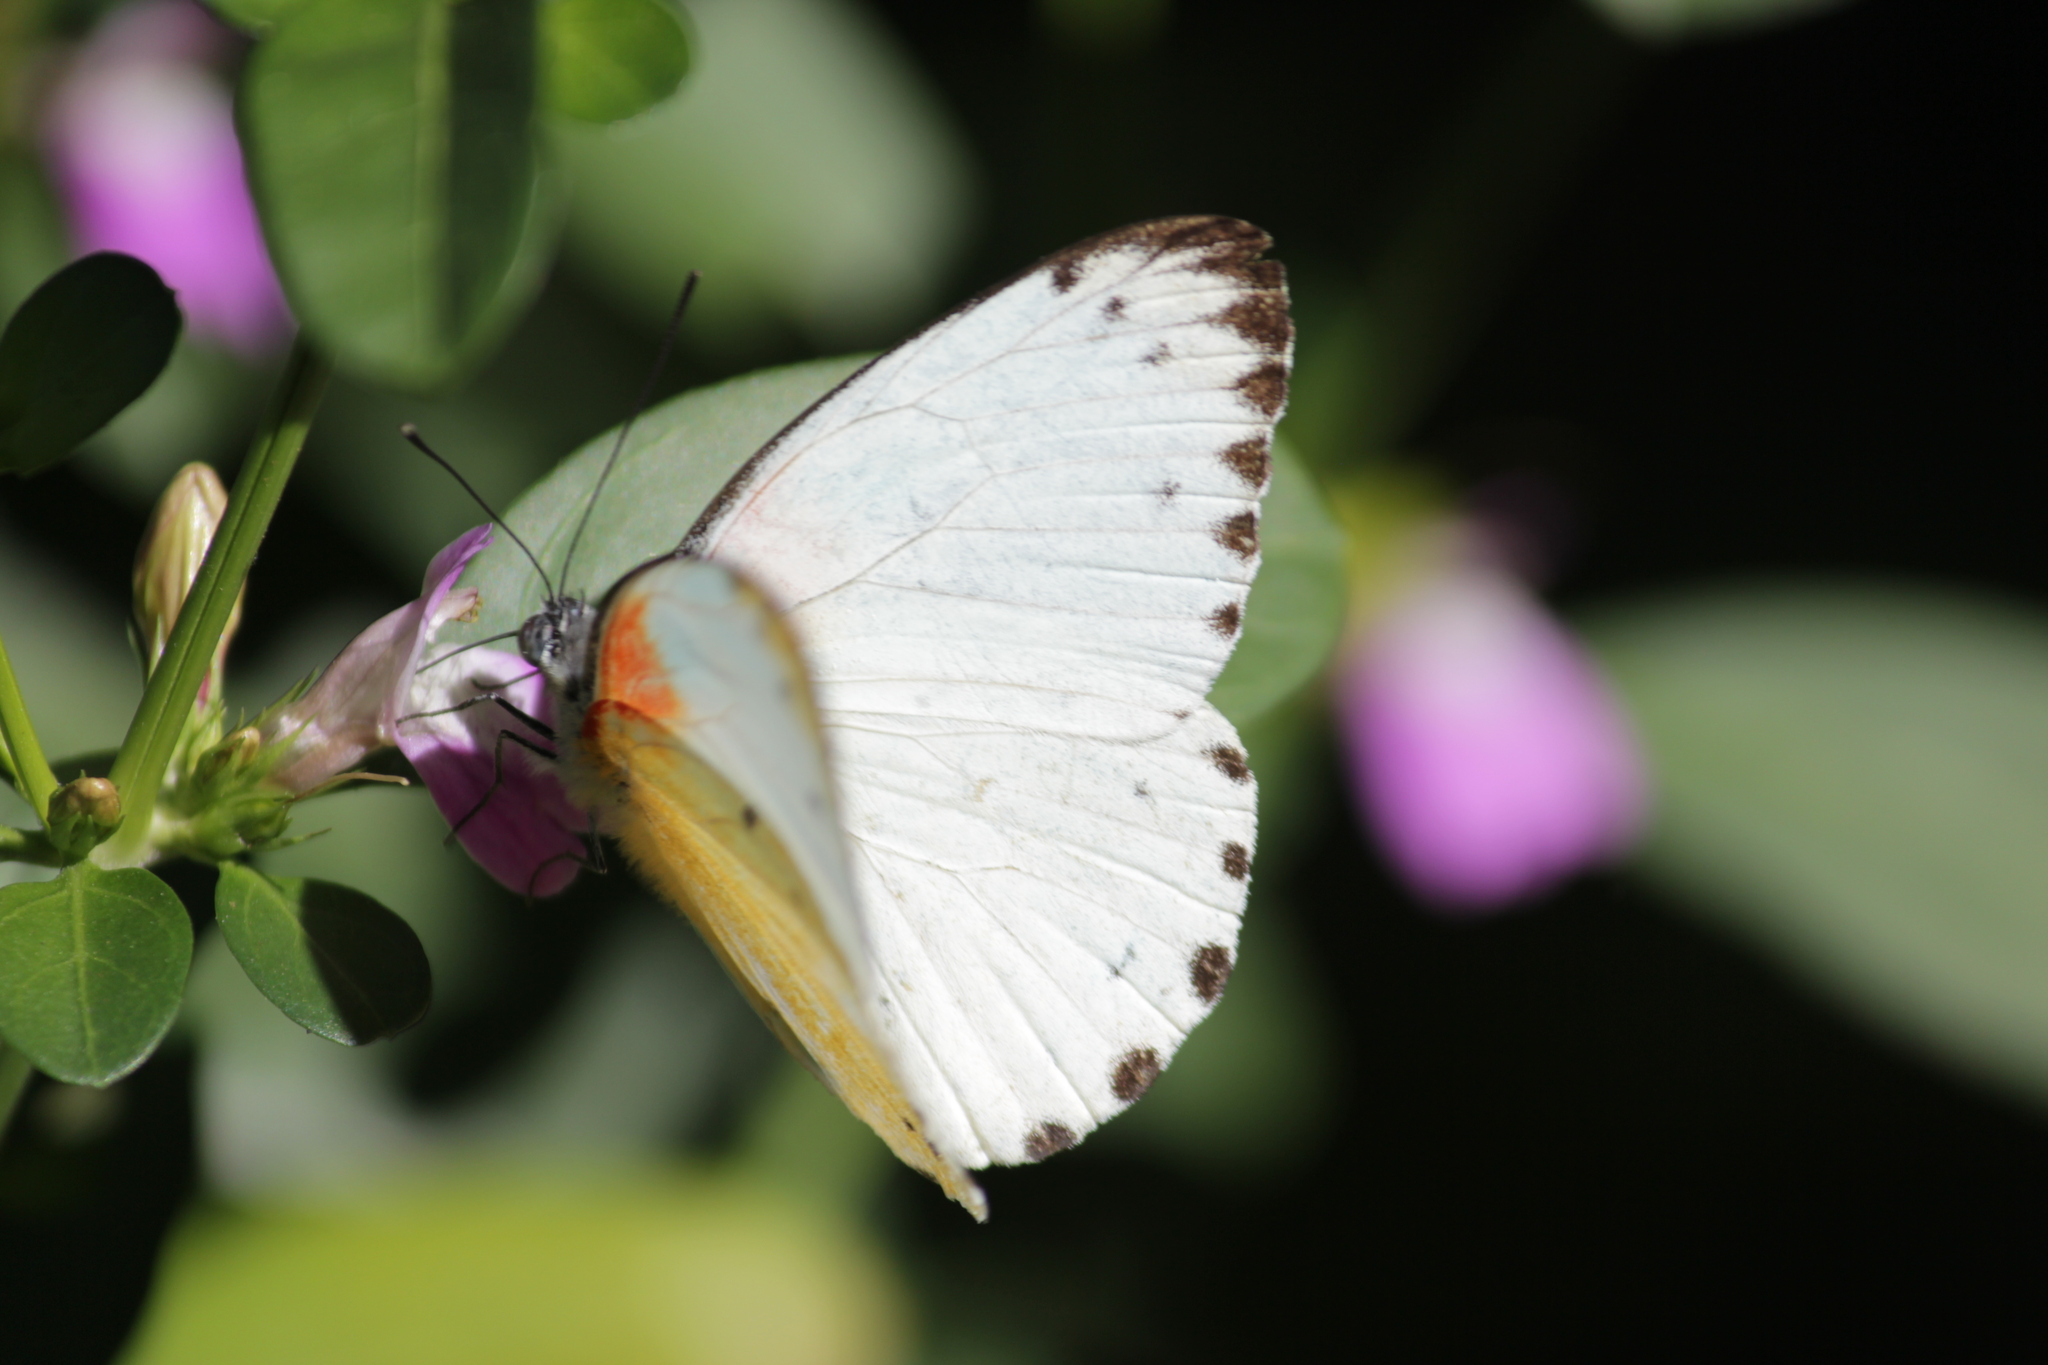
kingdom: Animalia
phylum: Arthropoda
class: Insecta
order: Lepidoptera
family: Pieridae
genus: Belenois
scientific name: Belenois thysa
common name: False dotted border
